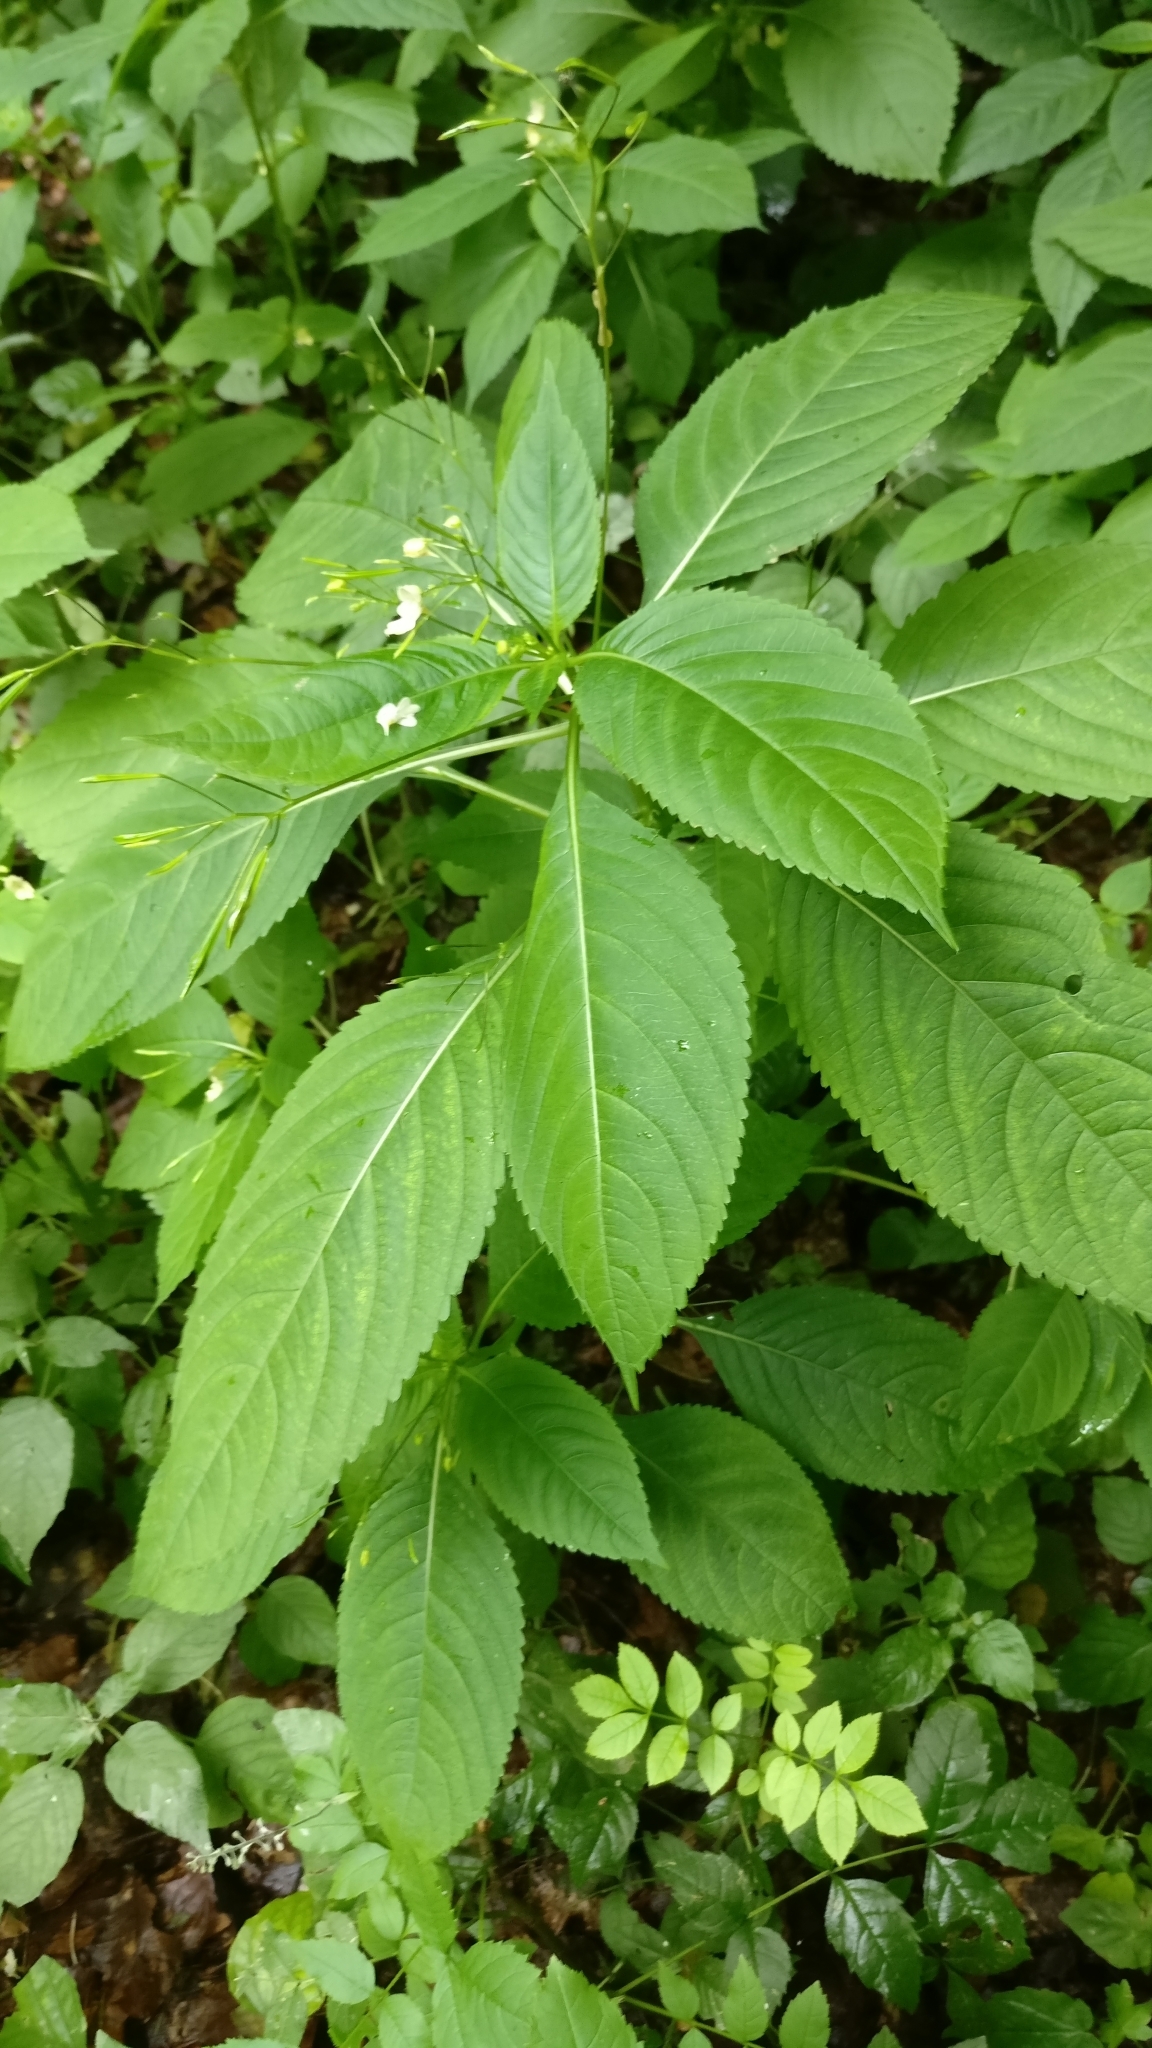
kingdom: Plantae
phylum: Tracheophyta
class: Magnoliopsida
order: Ericales
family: Balsaminaceae
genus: Impatiens
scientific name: Impatiens parviflora
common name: Small balsam
